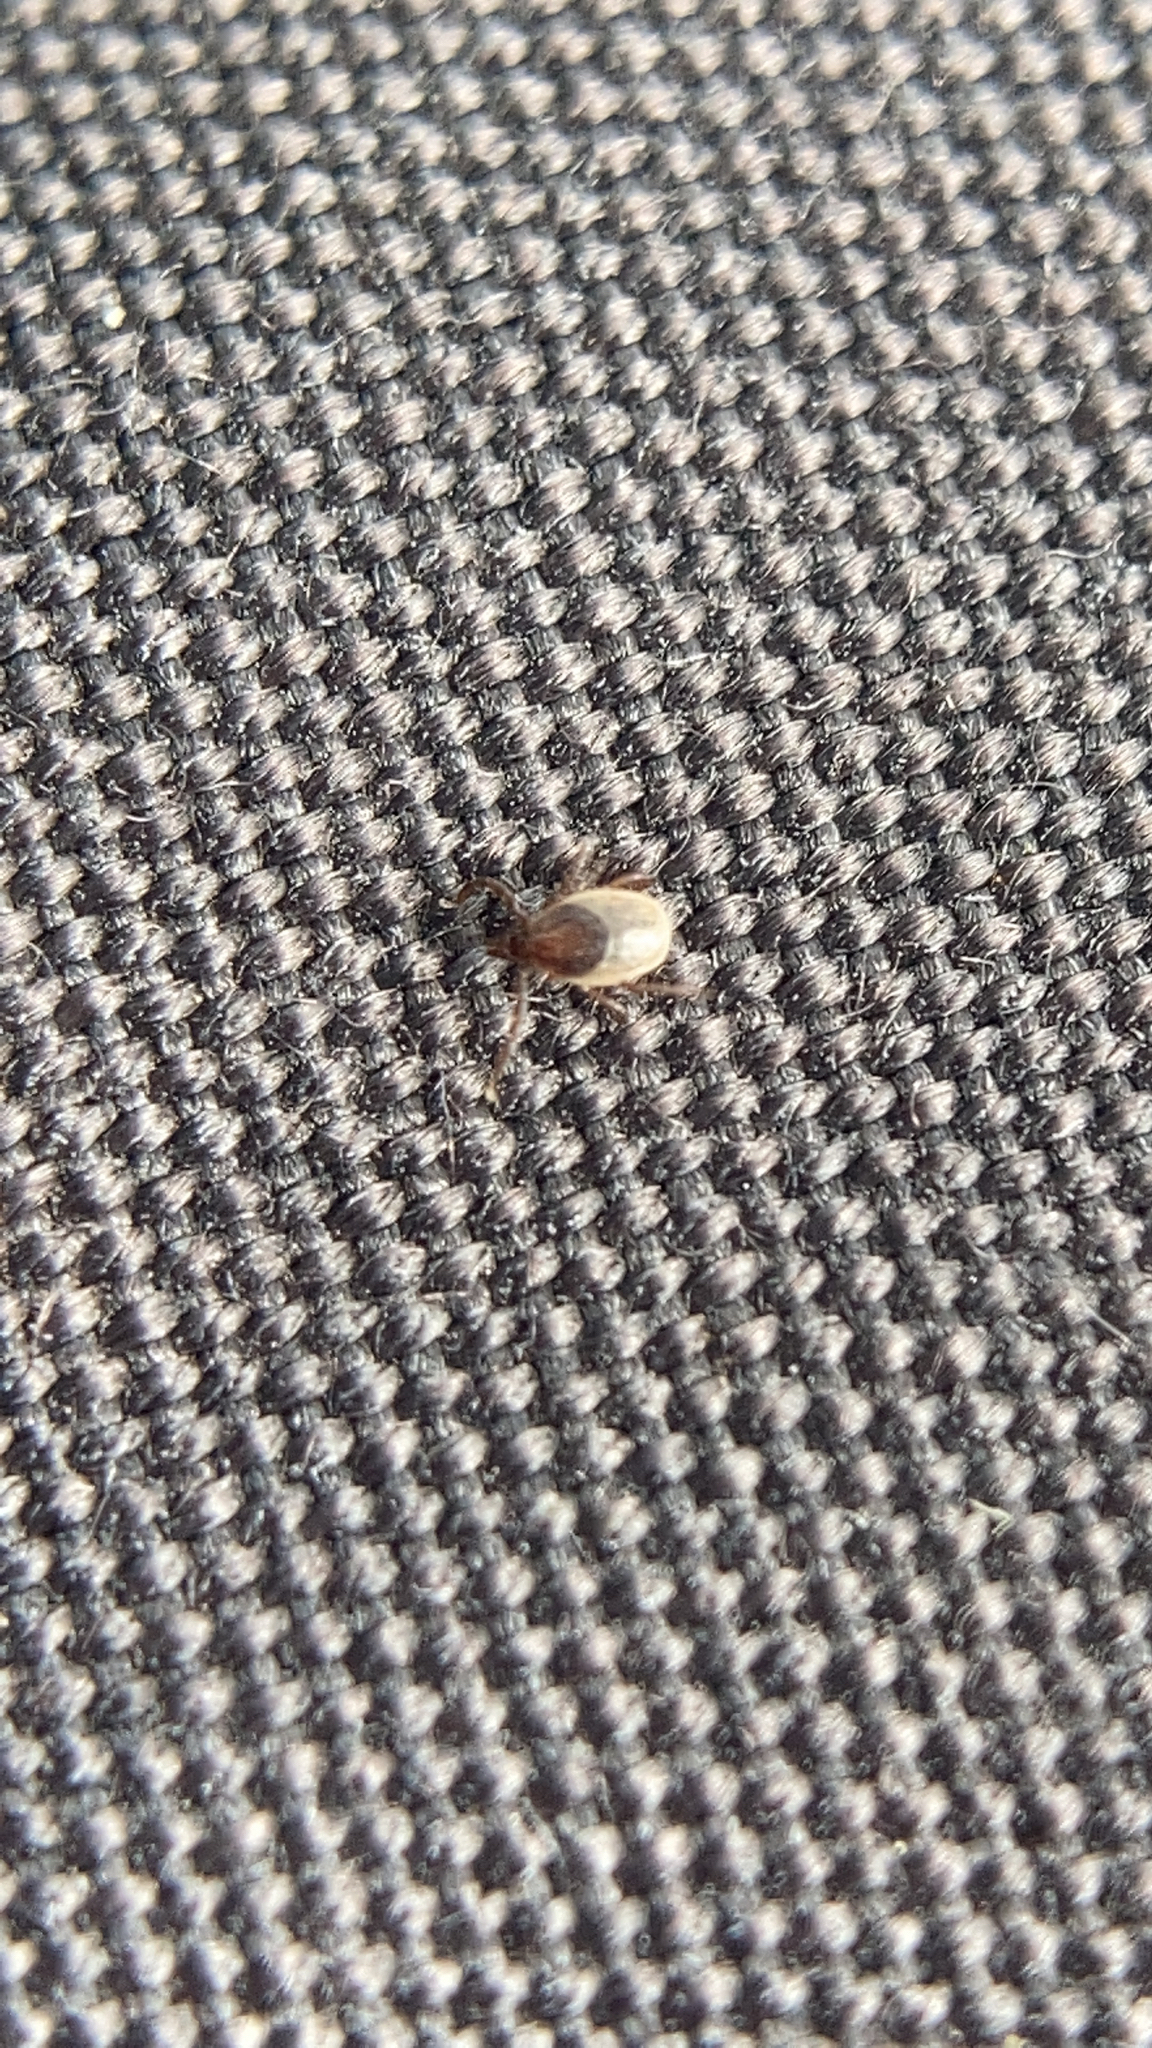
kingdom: Animalia
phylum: Arthropoda
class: Arachnida
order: Ixodida
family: Ixodidae
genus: Ixodes
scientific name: Ixodes ricinus
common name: Castor bean tick
